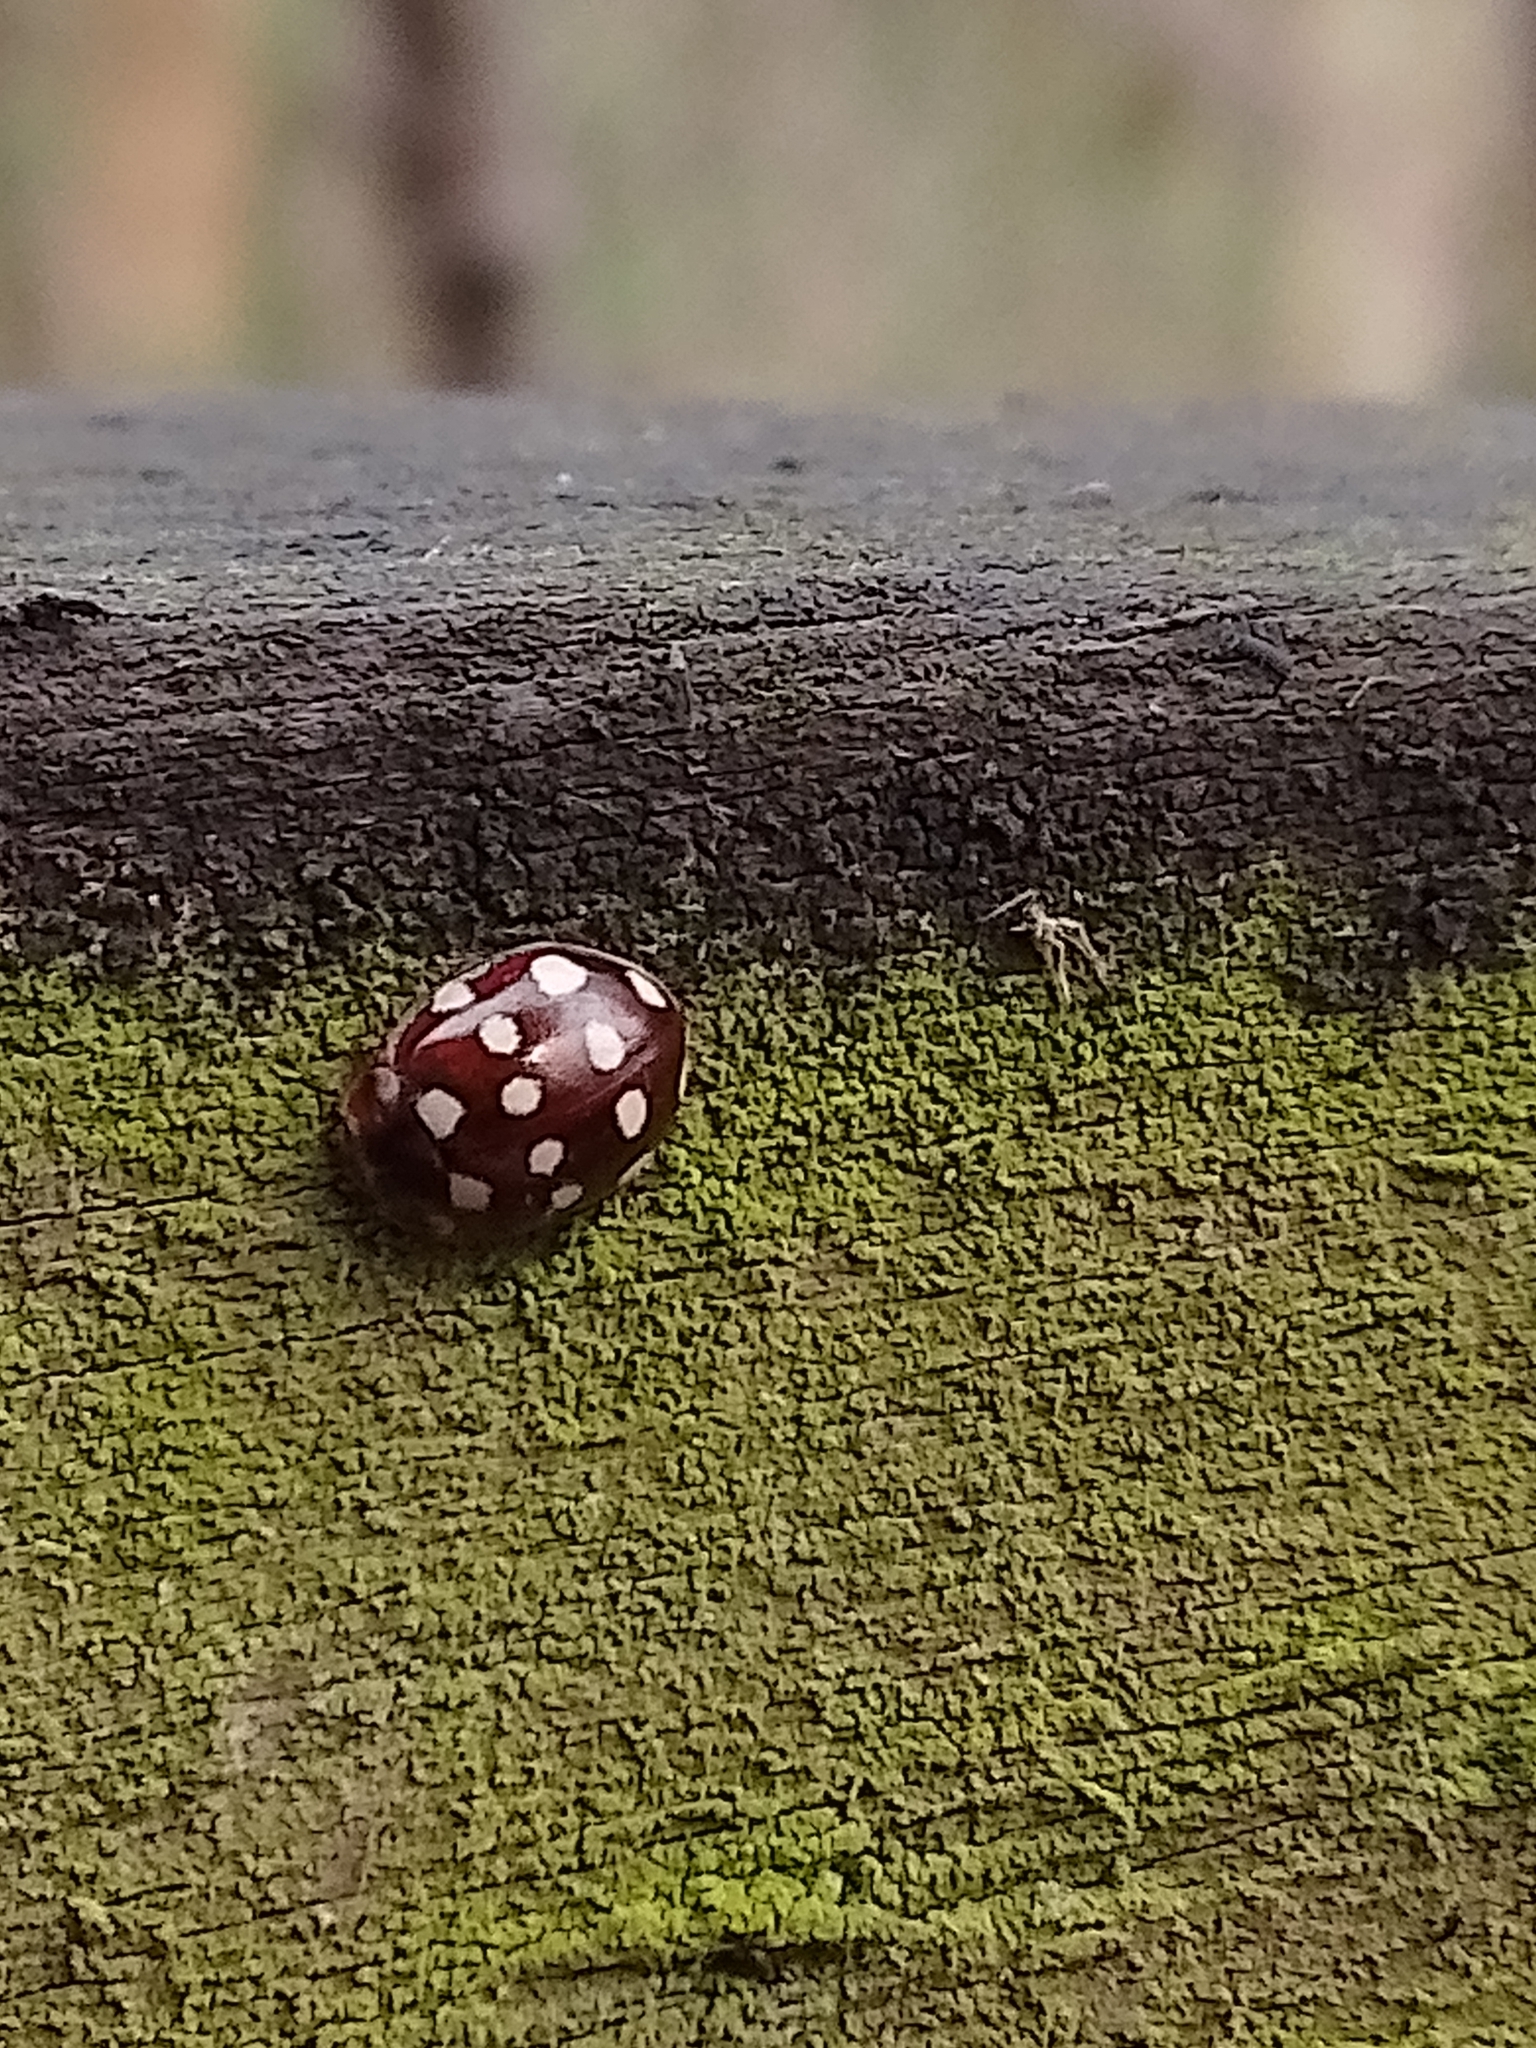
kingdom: Animalia
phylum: Arthropoda
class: Insecta
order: Coleoptera
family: Coccinellidae
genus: Calvia
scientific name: Calvia quatuordecimguttata
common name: Cream-spot ladybird
